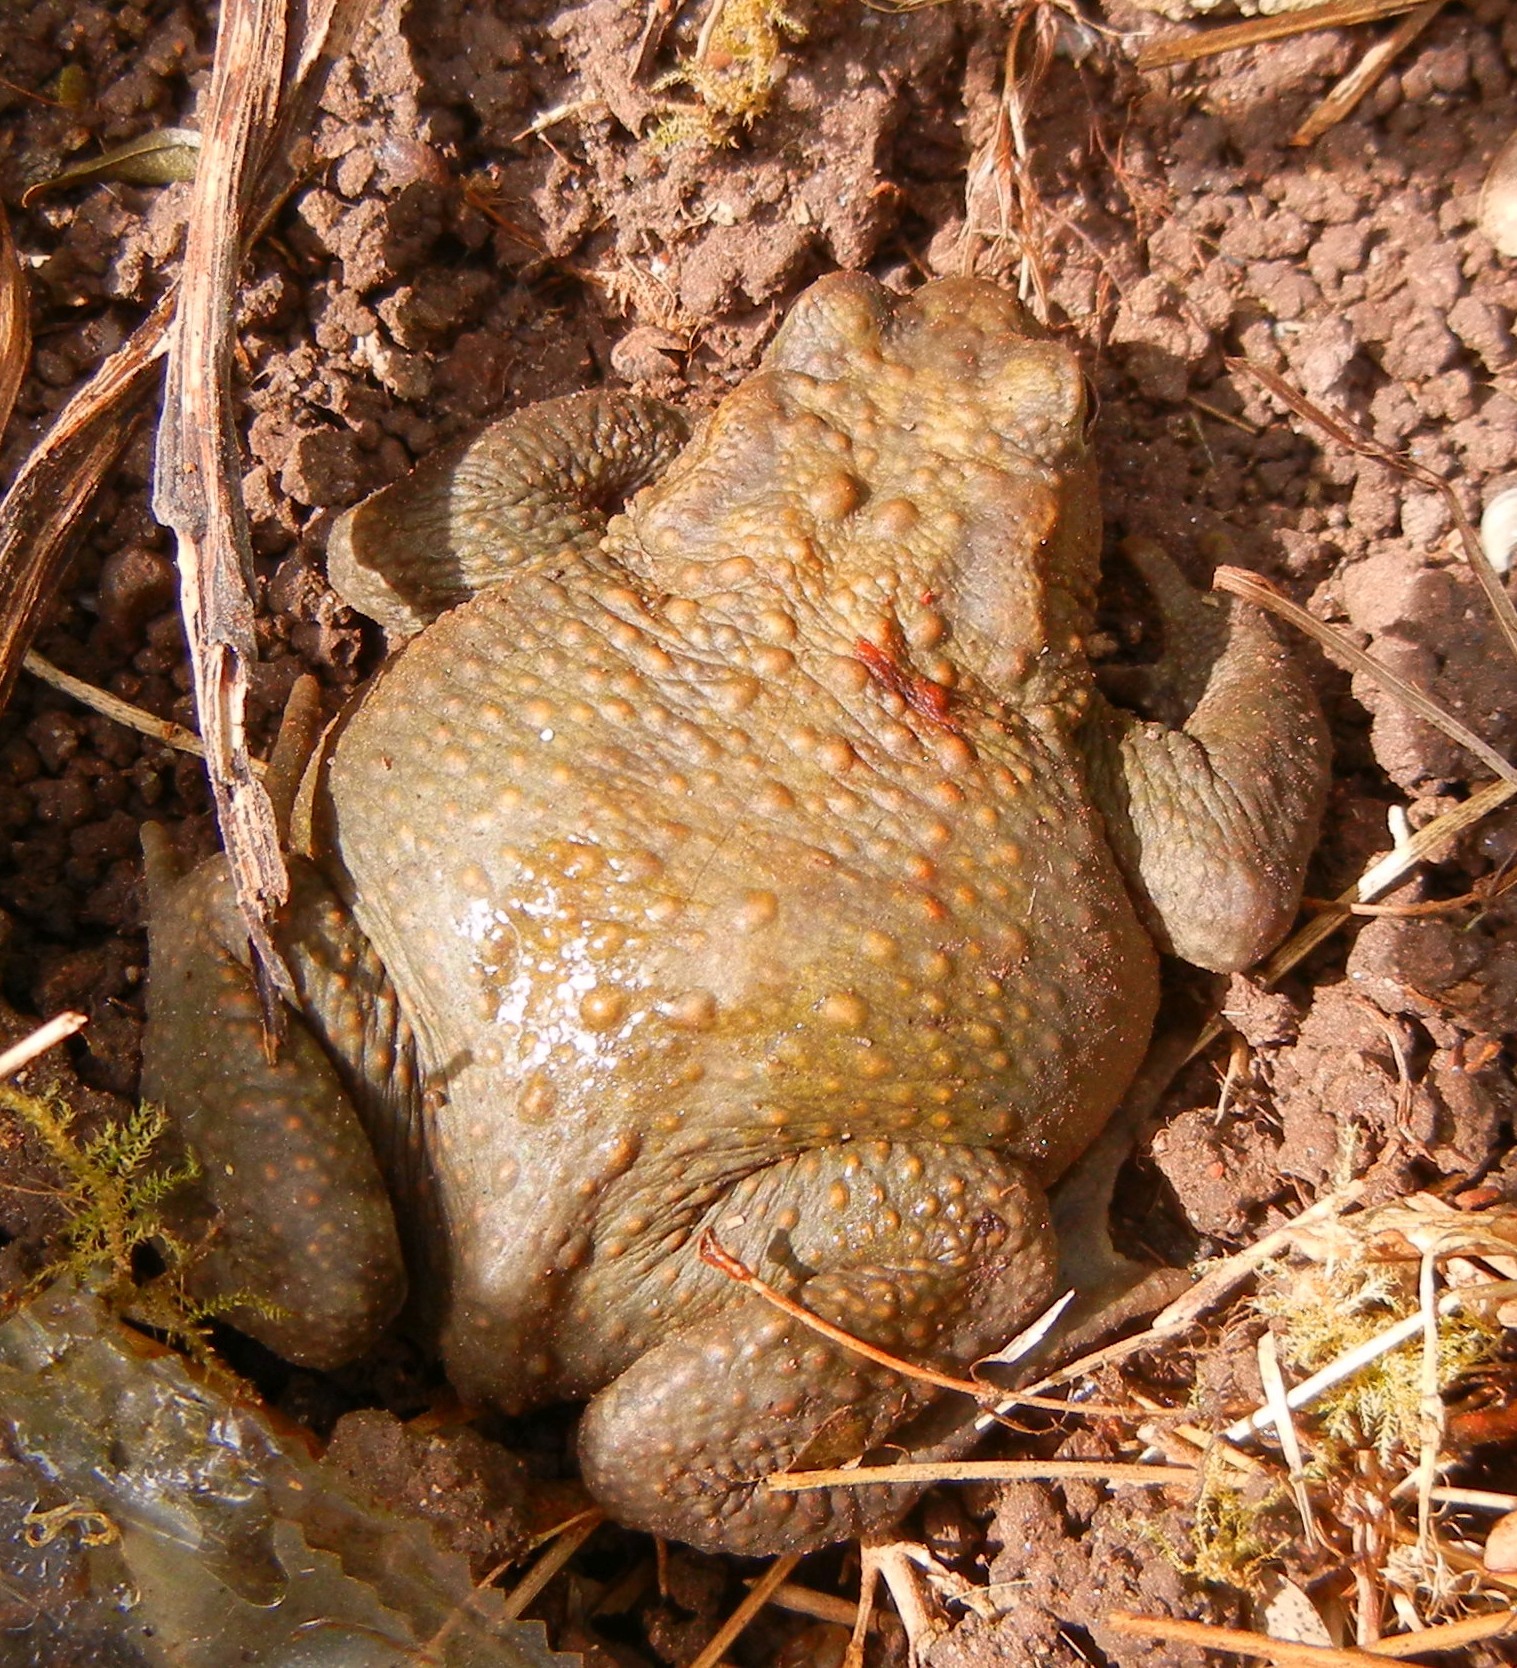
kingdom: Animalia
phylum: Chordata
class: Amphibia
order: Anura
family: Bufonidae
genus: Bufo
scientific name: Bufo bufo
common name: Common toad
